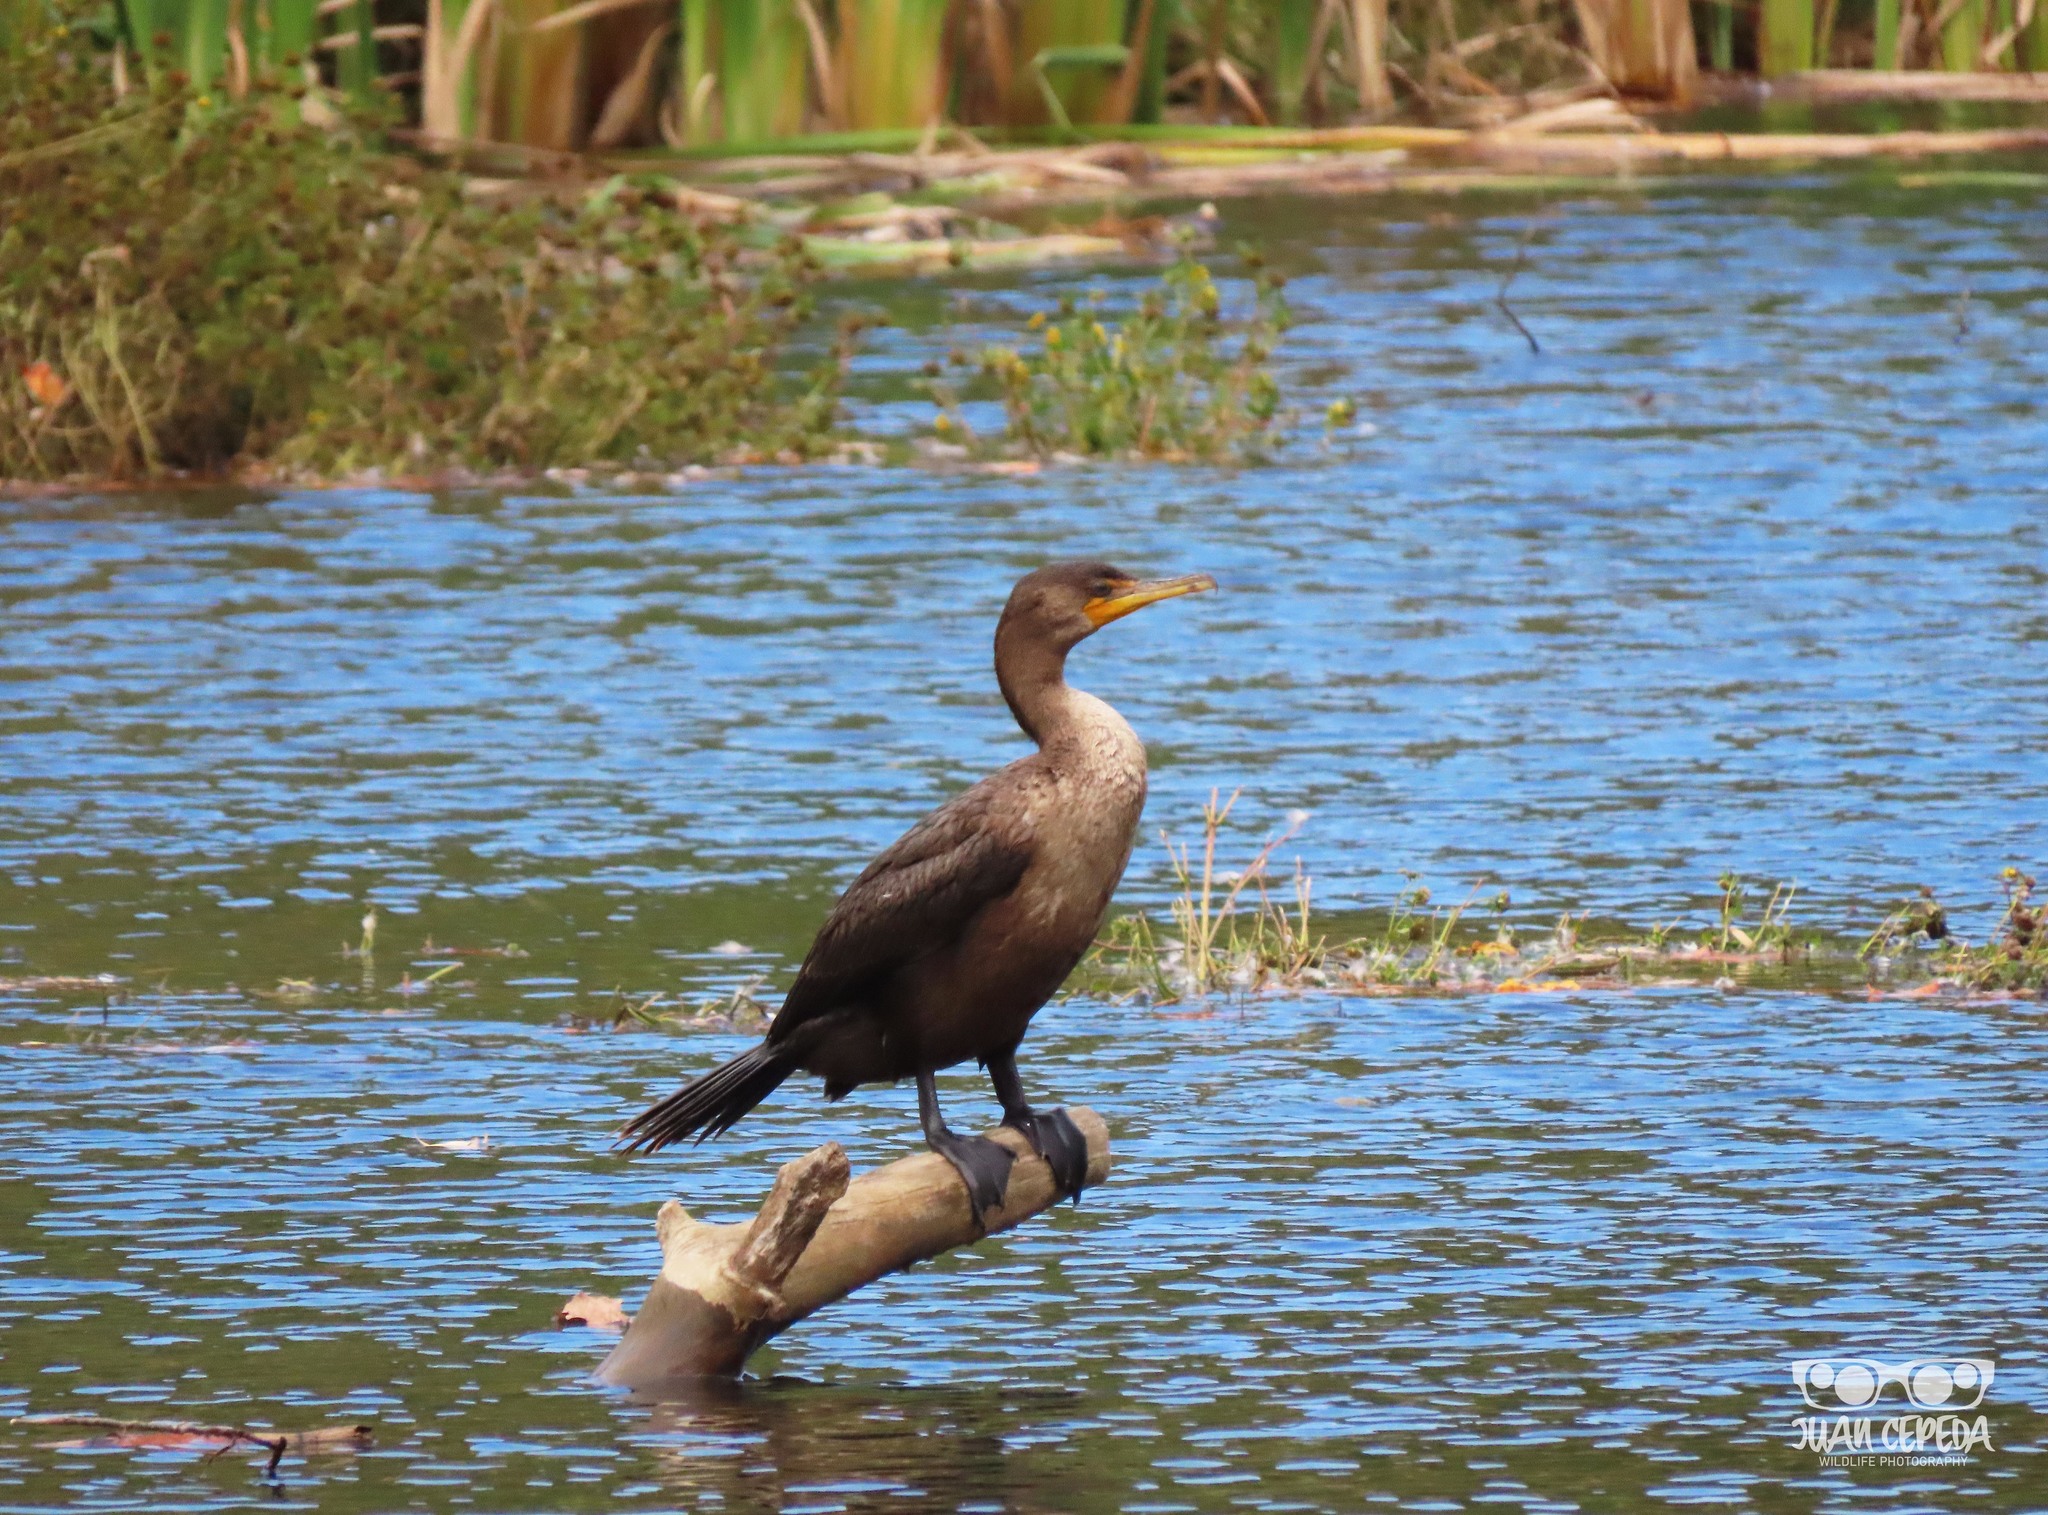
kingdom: Animalia
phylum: Chordata
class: Aves
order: Suliformes
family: Phalacrocoracidae
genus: Phalacrocorax
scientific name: Phalacrocorax auritus
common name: Double-crested cormorant
